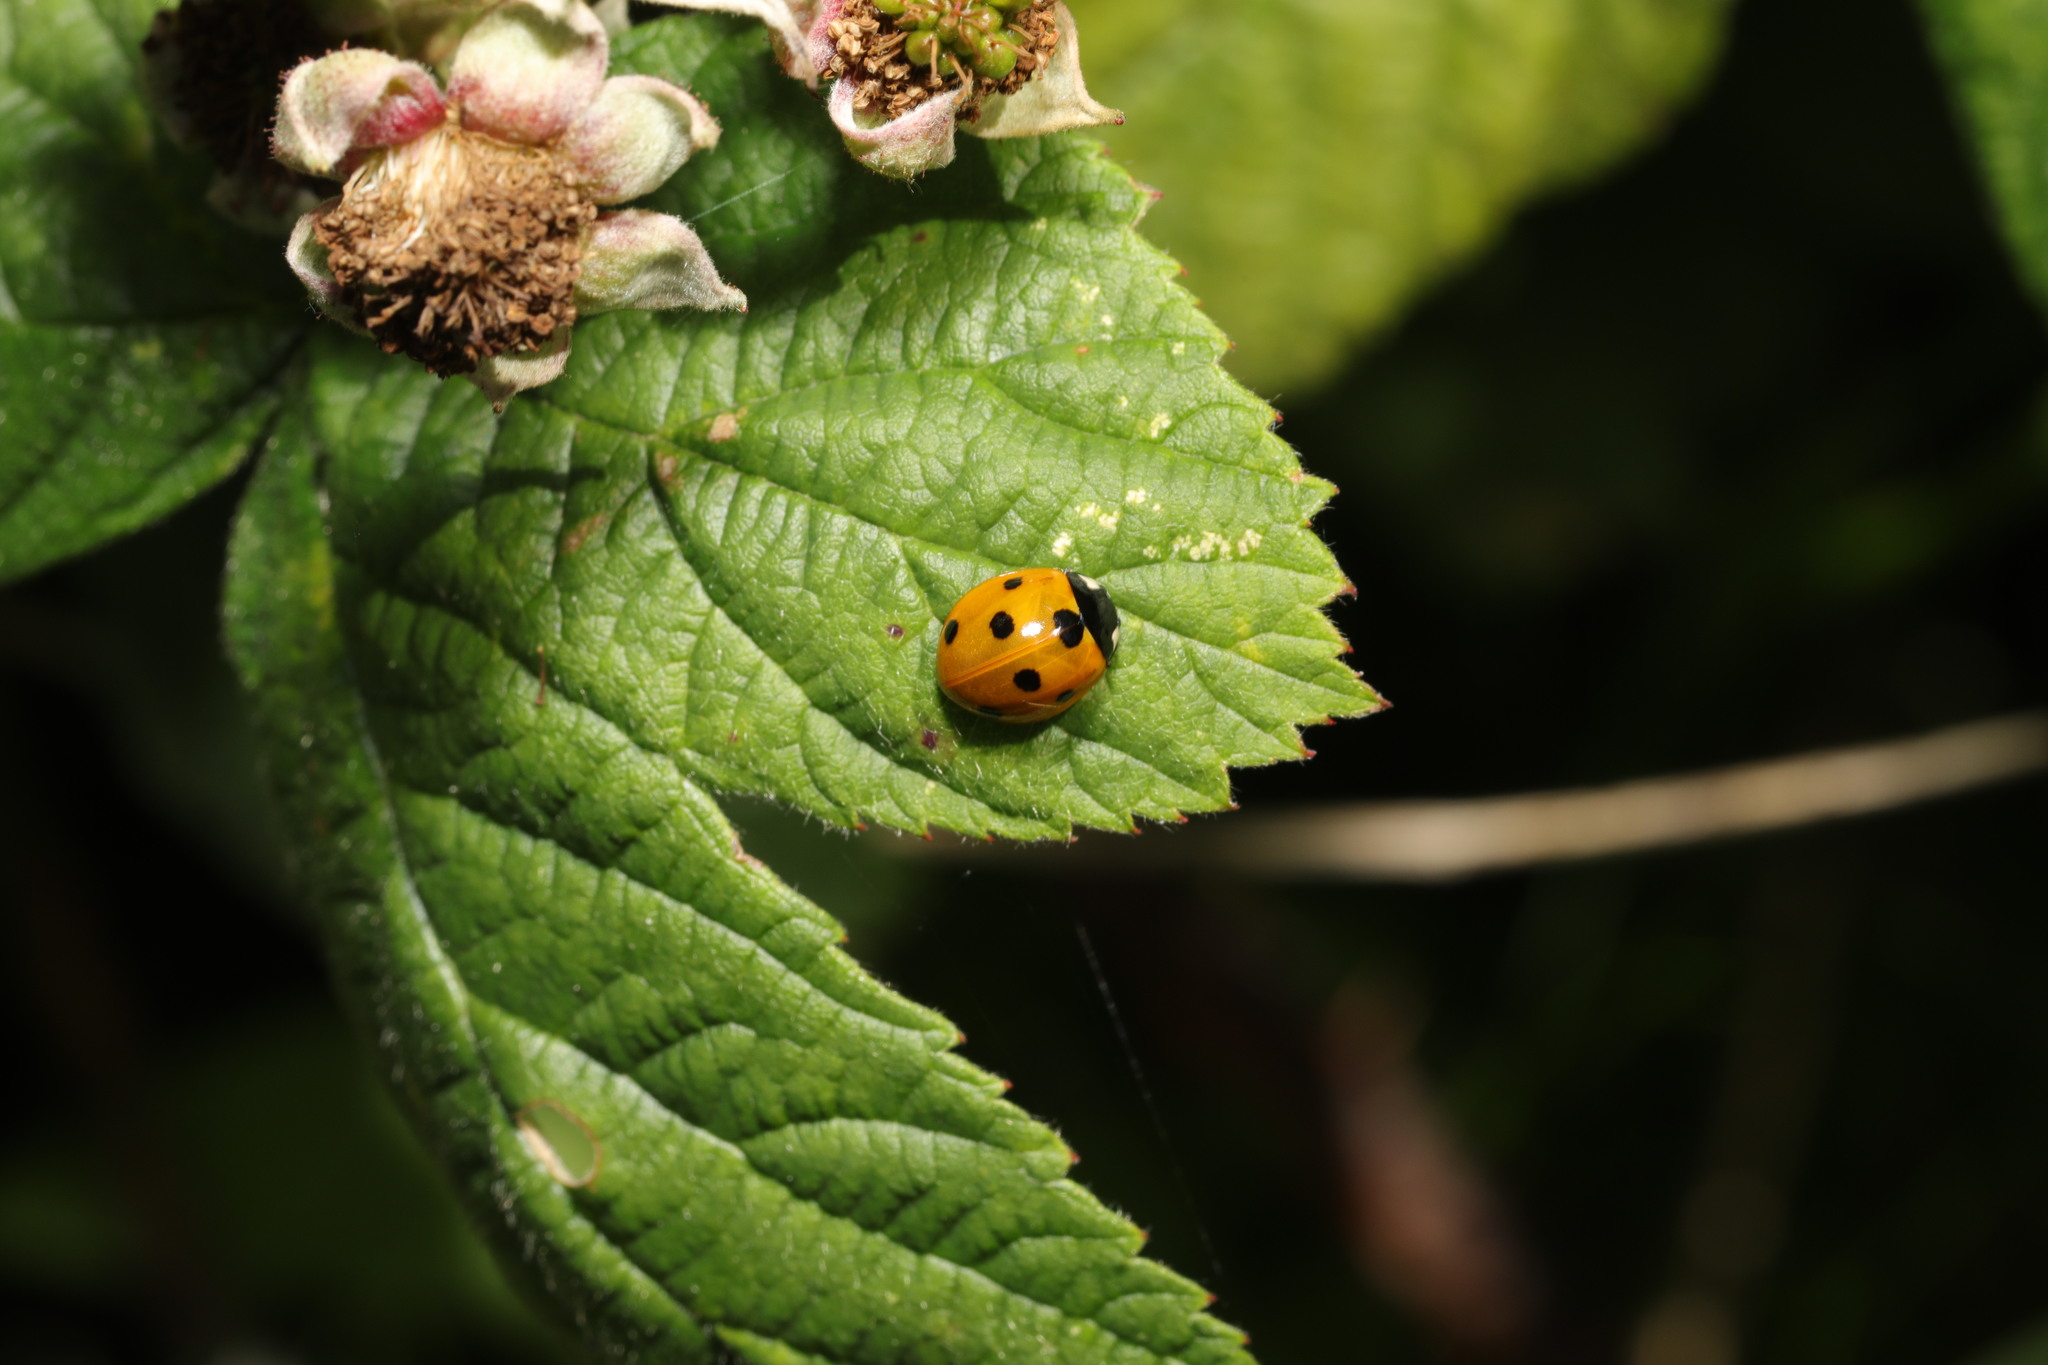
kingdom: Animalia
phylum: Arthropoda
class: Insecta
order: Coleoptera
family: Coccinellidae
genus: Coccinella
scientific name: Coccinella septempunctata
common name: Sevenspotted lady beetle
